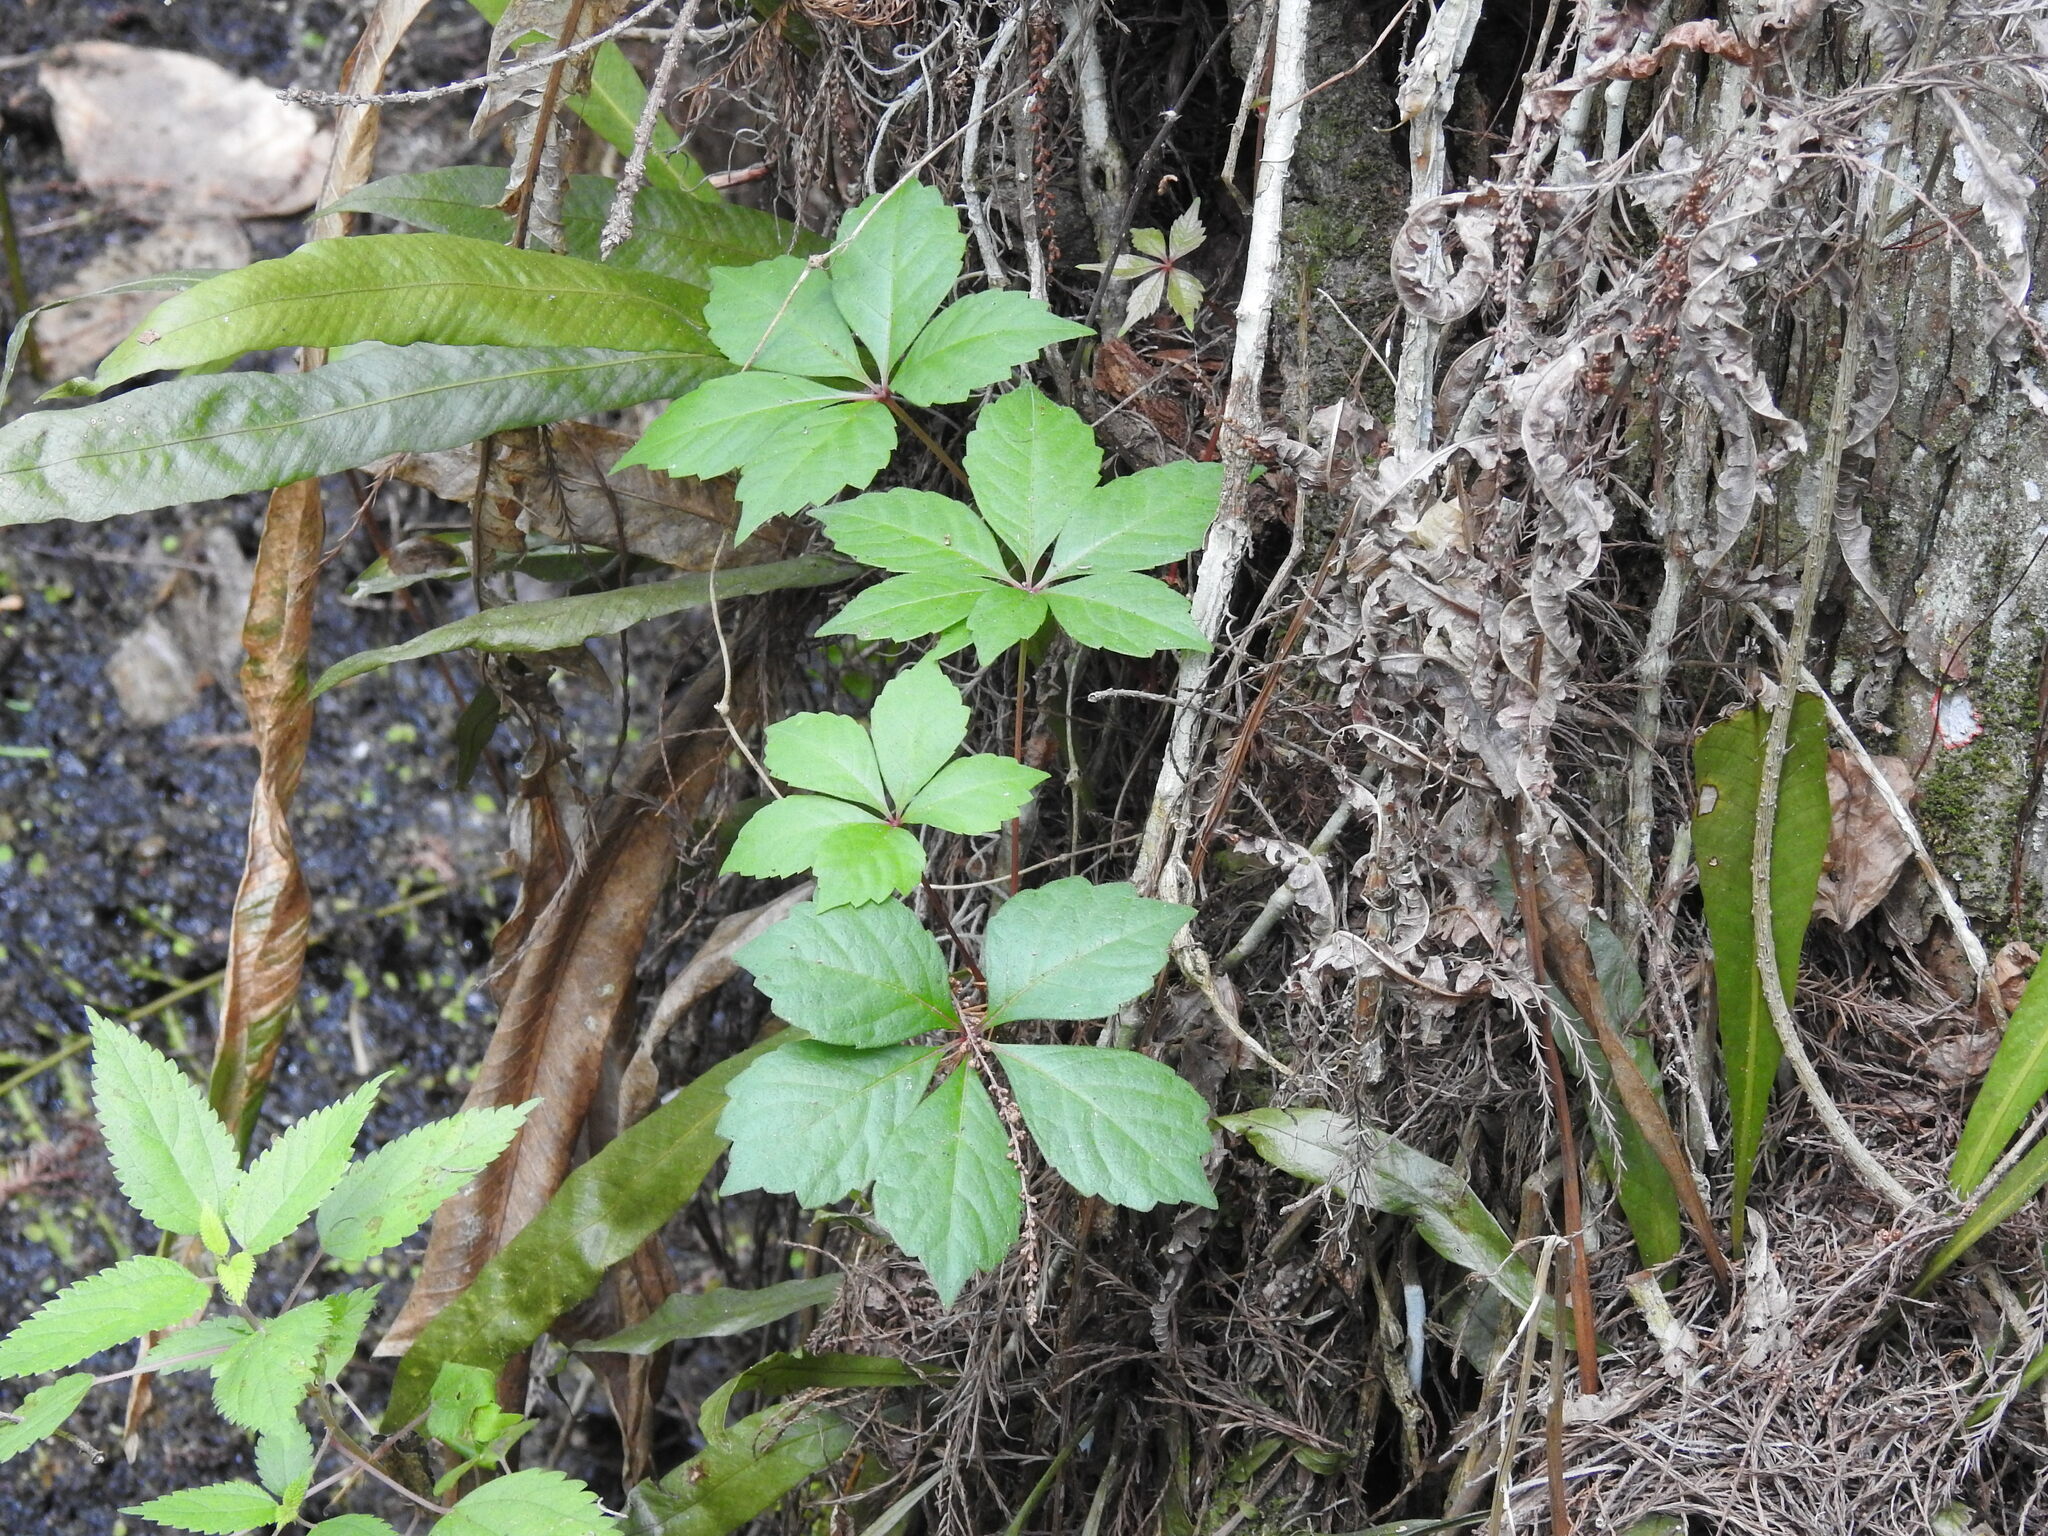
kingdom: Plantae
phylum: Tracheophyta
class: Magnoliopsida
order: Vitales
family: Vitaceae
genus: Parthenocissus
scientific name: Parthenocissus quinquefolia
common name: Virginia-creeper
